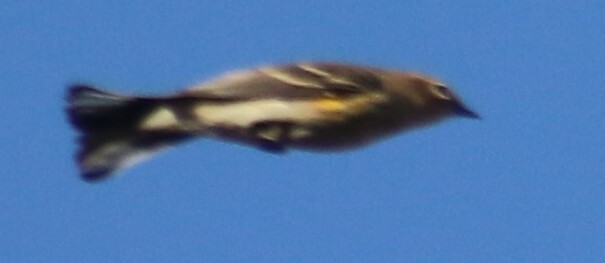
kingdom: Animalia
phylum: Chordata
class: Aves
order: Passeriformes
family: Parulidae
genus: Setophaga
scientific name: Setophaga coronata
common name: Myrtle warbler
